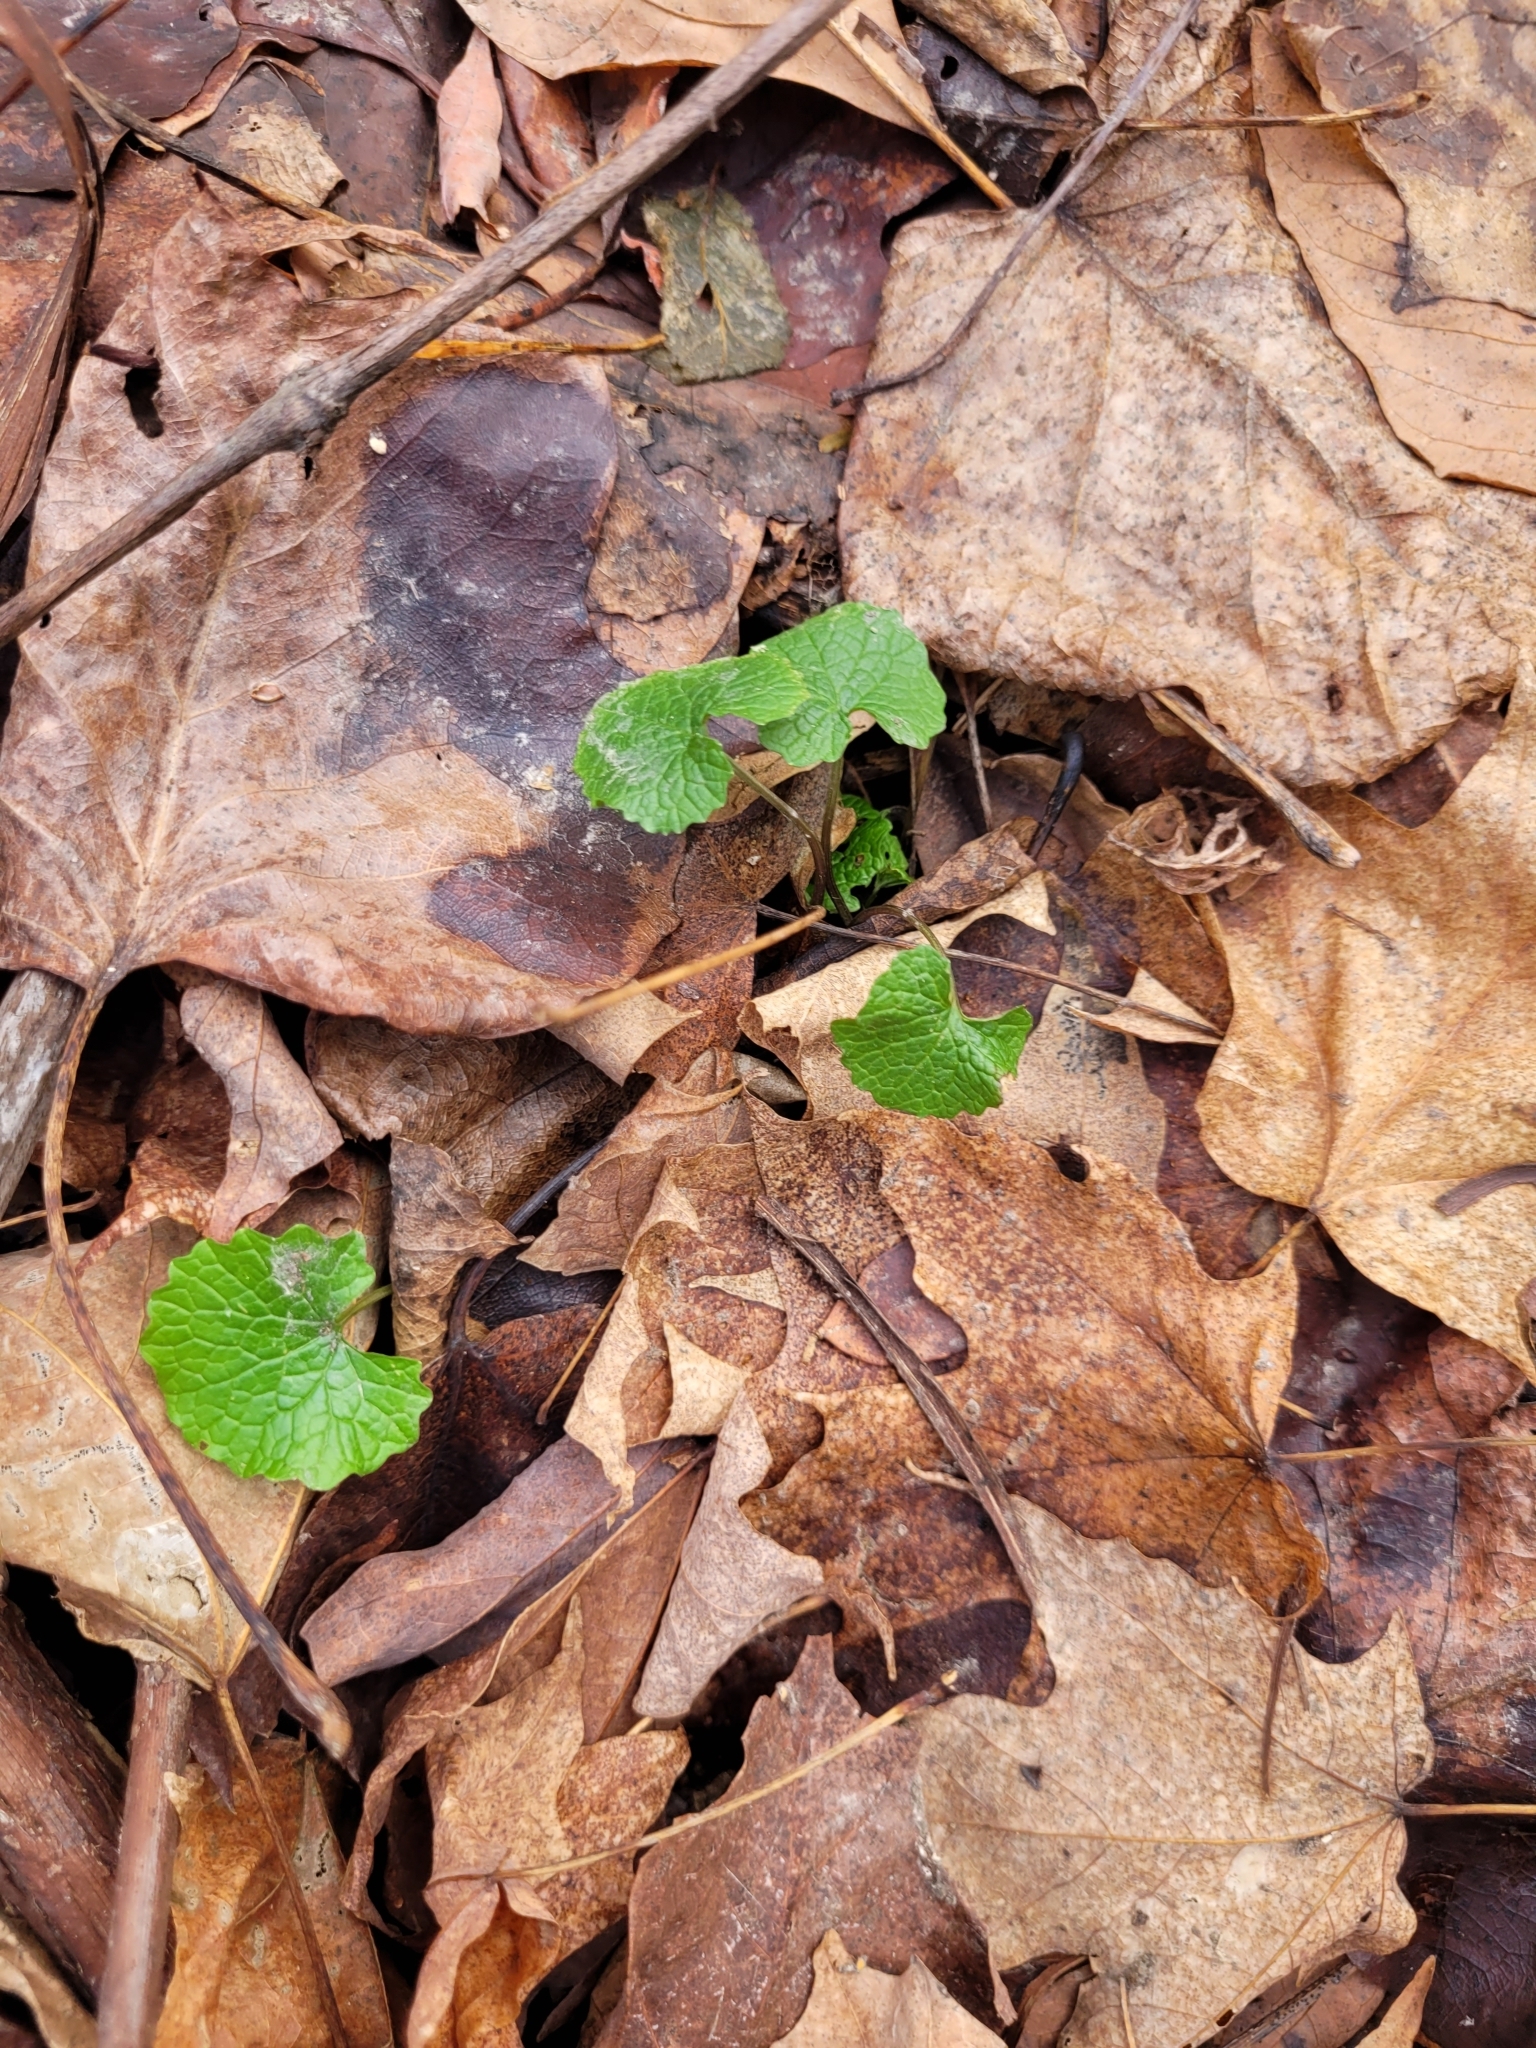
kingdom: Plantae
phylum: Tracheophyta
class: Magnoliopsida
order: Brassicales
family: Brassicaceae
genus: Alliaria
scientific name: Alliaria petiolata
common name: Garlic mustard
